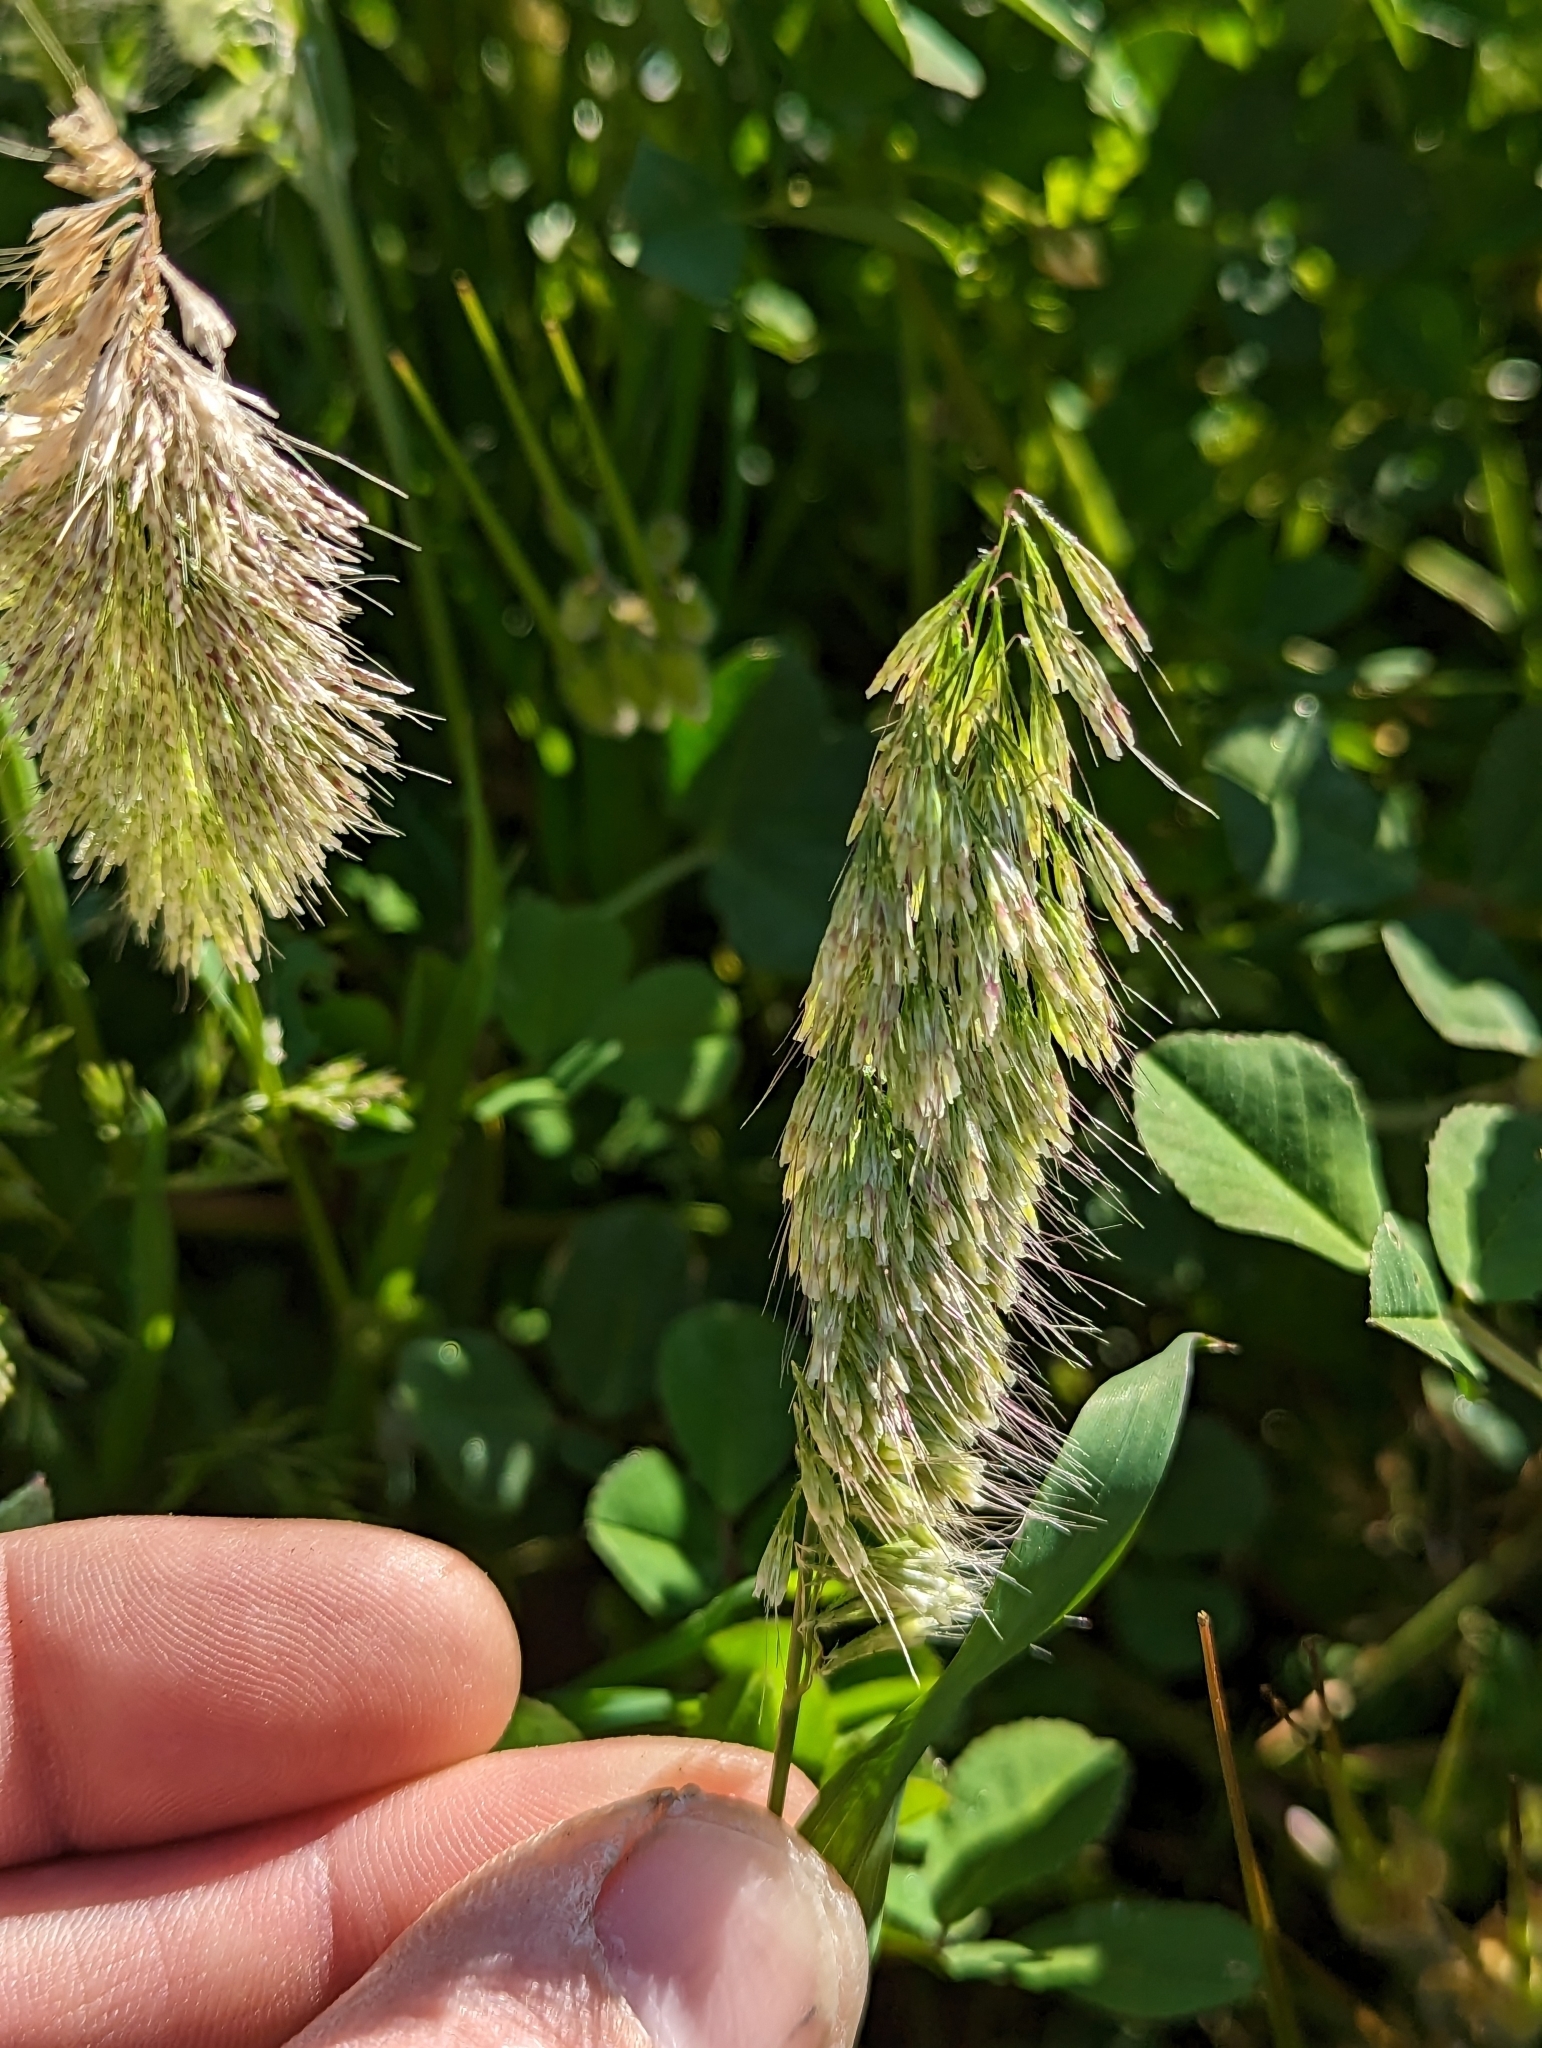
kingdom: Plantae
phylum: Tracheophyta
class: Liliopsida
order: Poales
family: Poaceae
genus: Lamarckia
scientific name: Lamarckia aurea
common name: Golden dog's-tail
